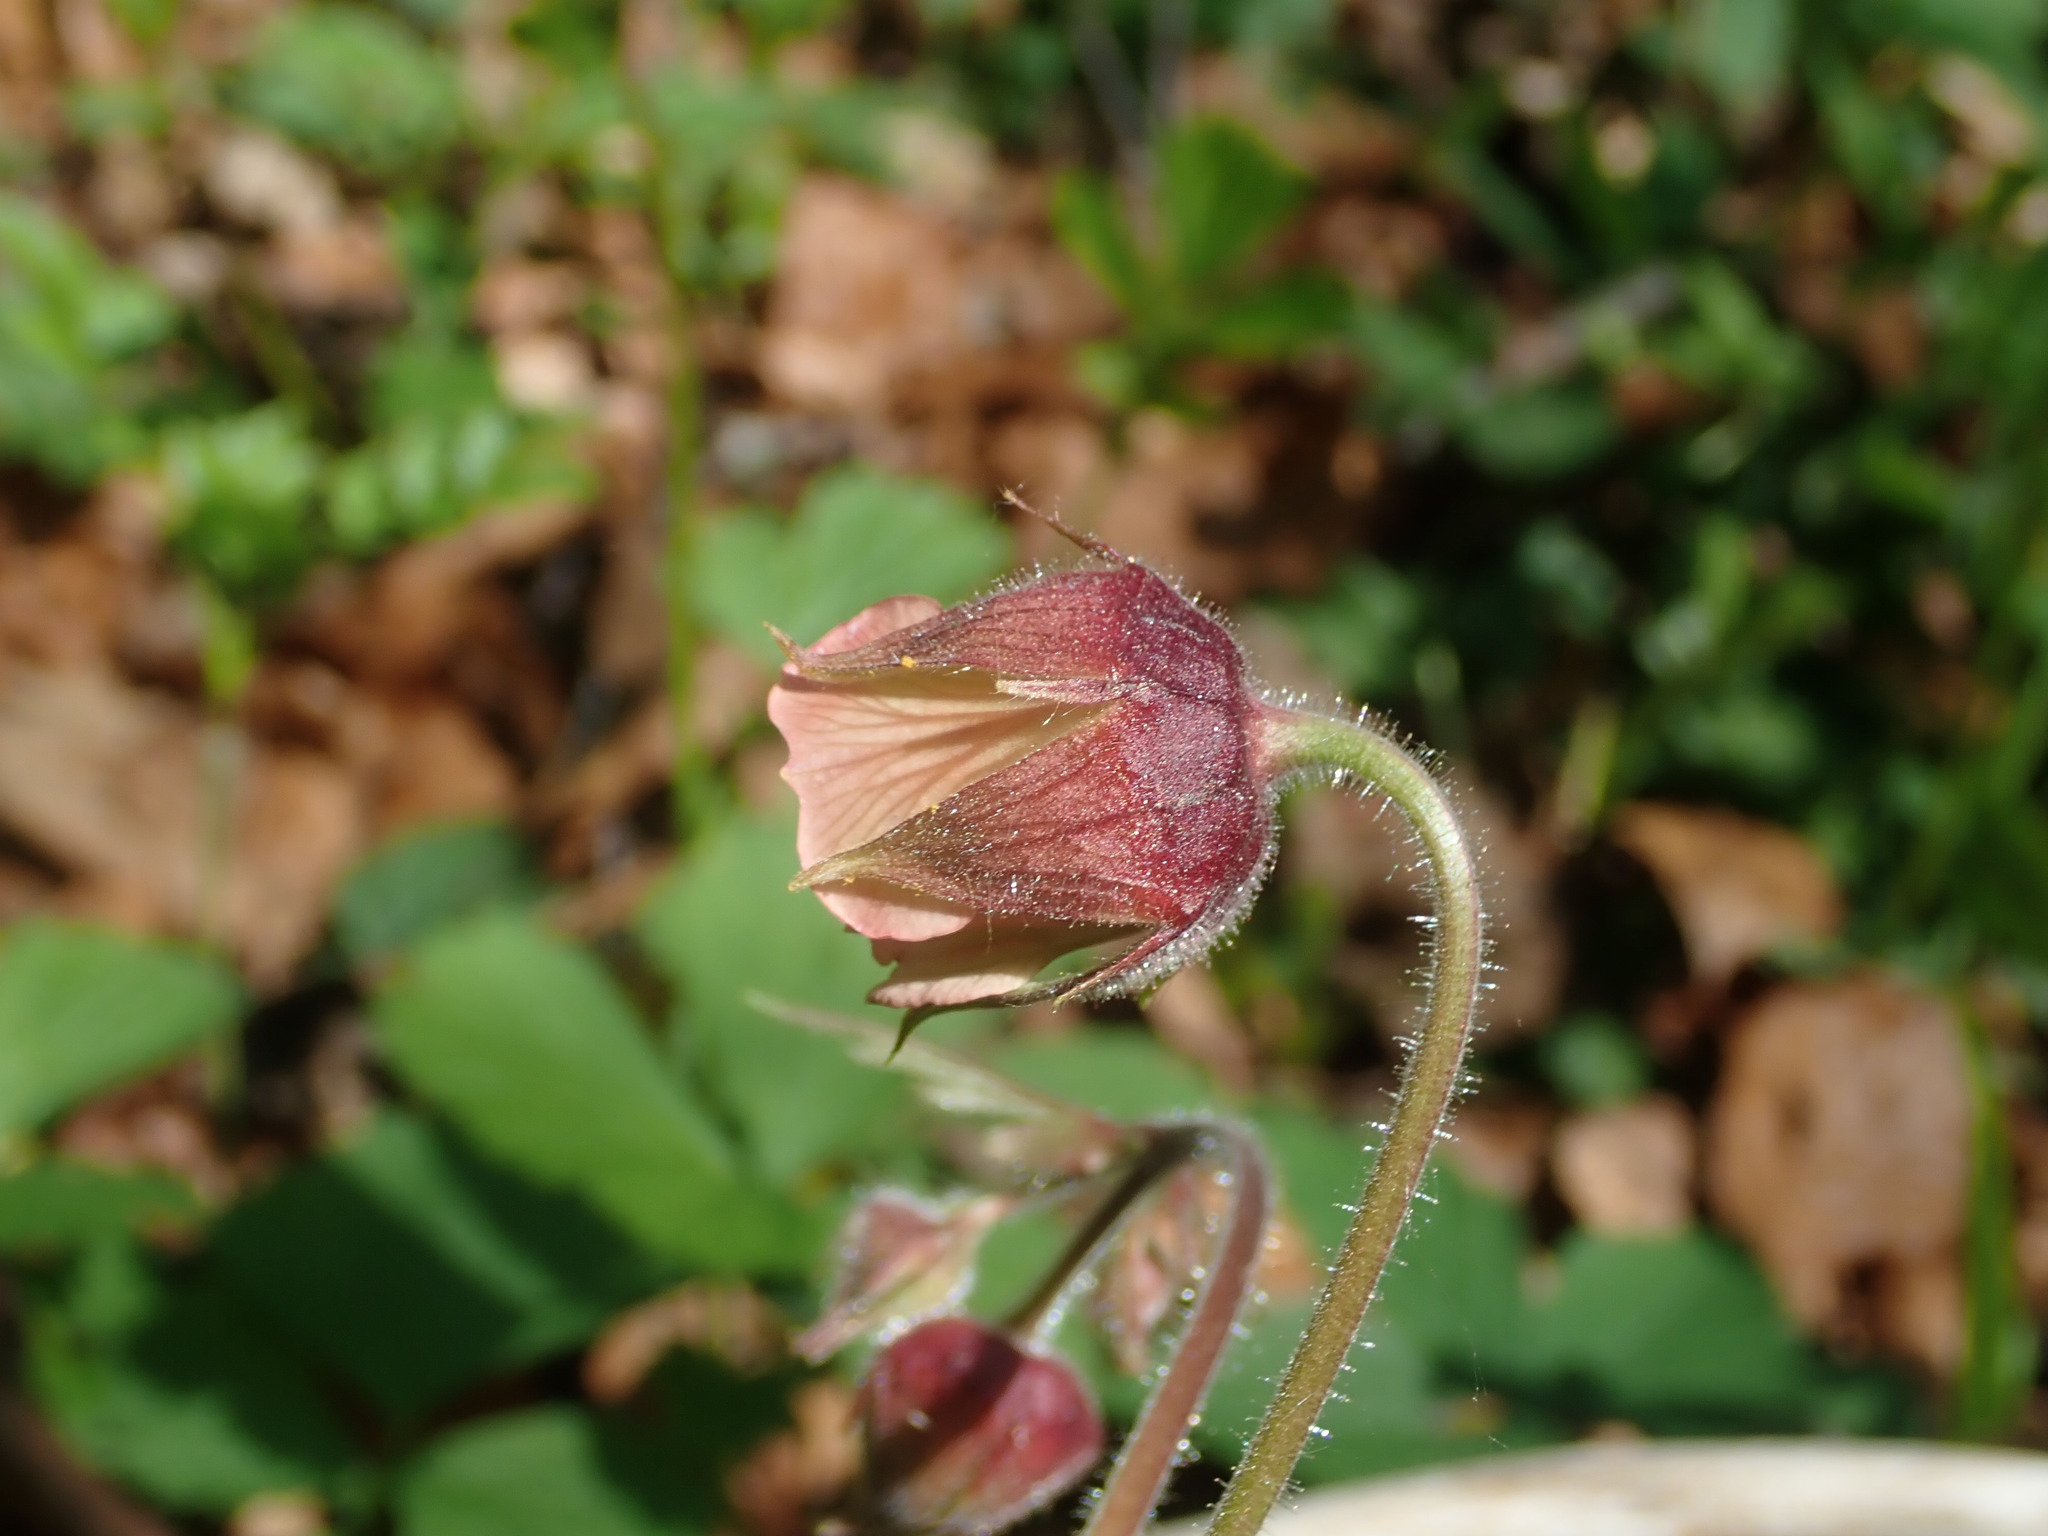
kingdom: Plantae
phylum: Tracheophyta
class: Magnoliopsida
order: Rosales
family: Rosaceae
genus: Geum
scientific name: Geum rivale
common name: Water avens
